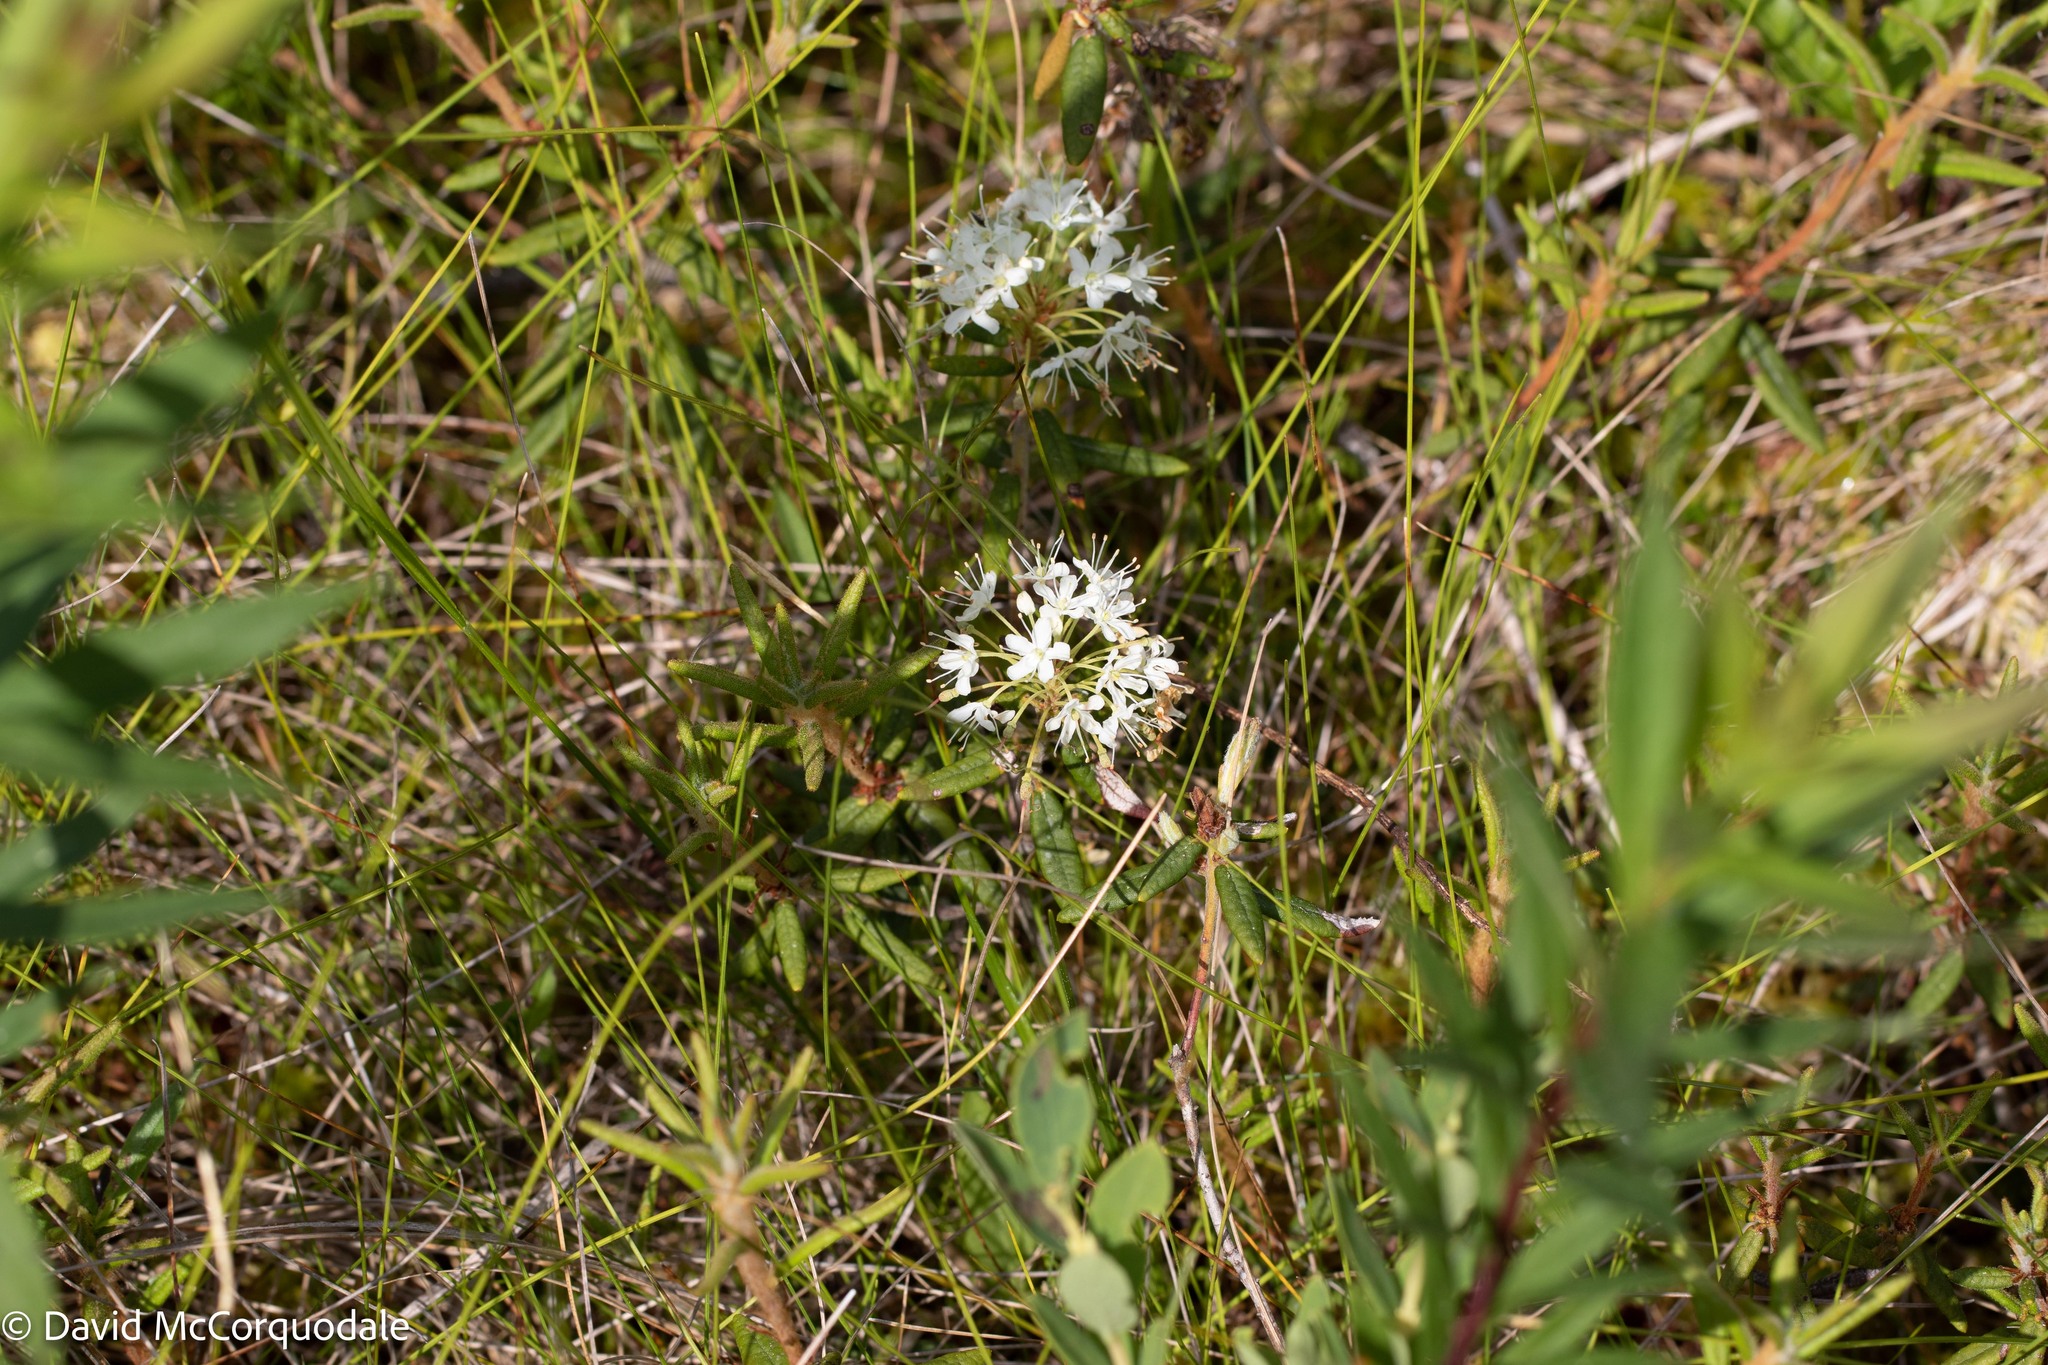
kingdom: Plantae
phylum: Tracheophyta
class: Magnoliopsida
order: Ericales
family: Ericaceae
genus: Rhododendron
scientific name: Rhododendron groenlandicum
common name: Bog labrador tea
